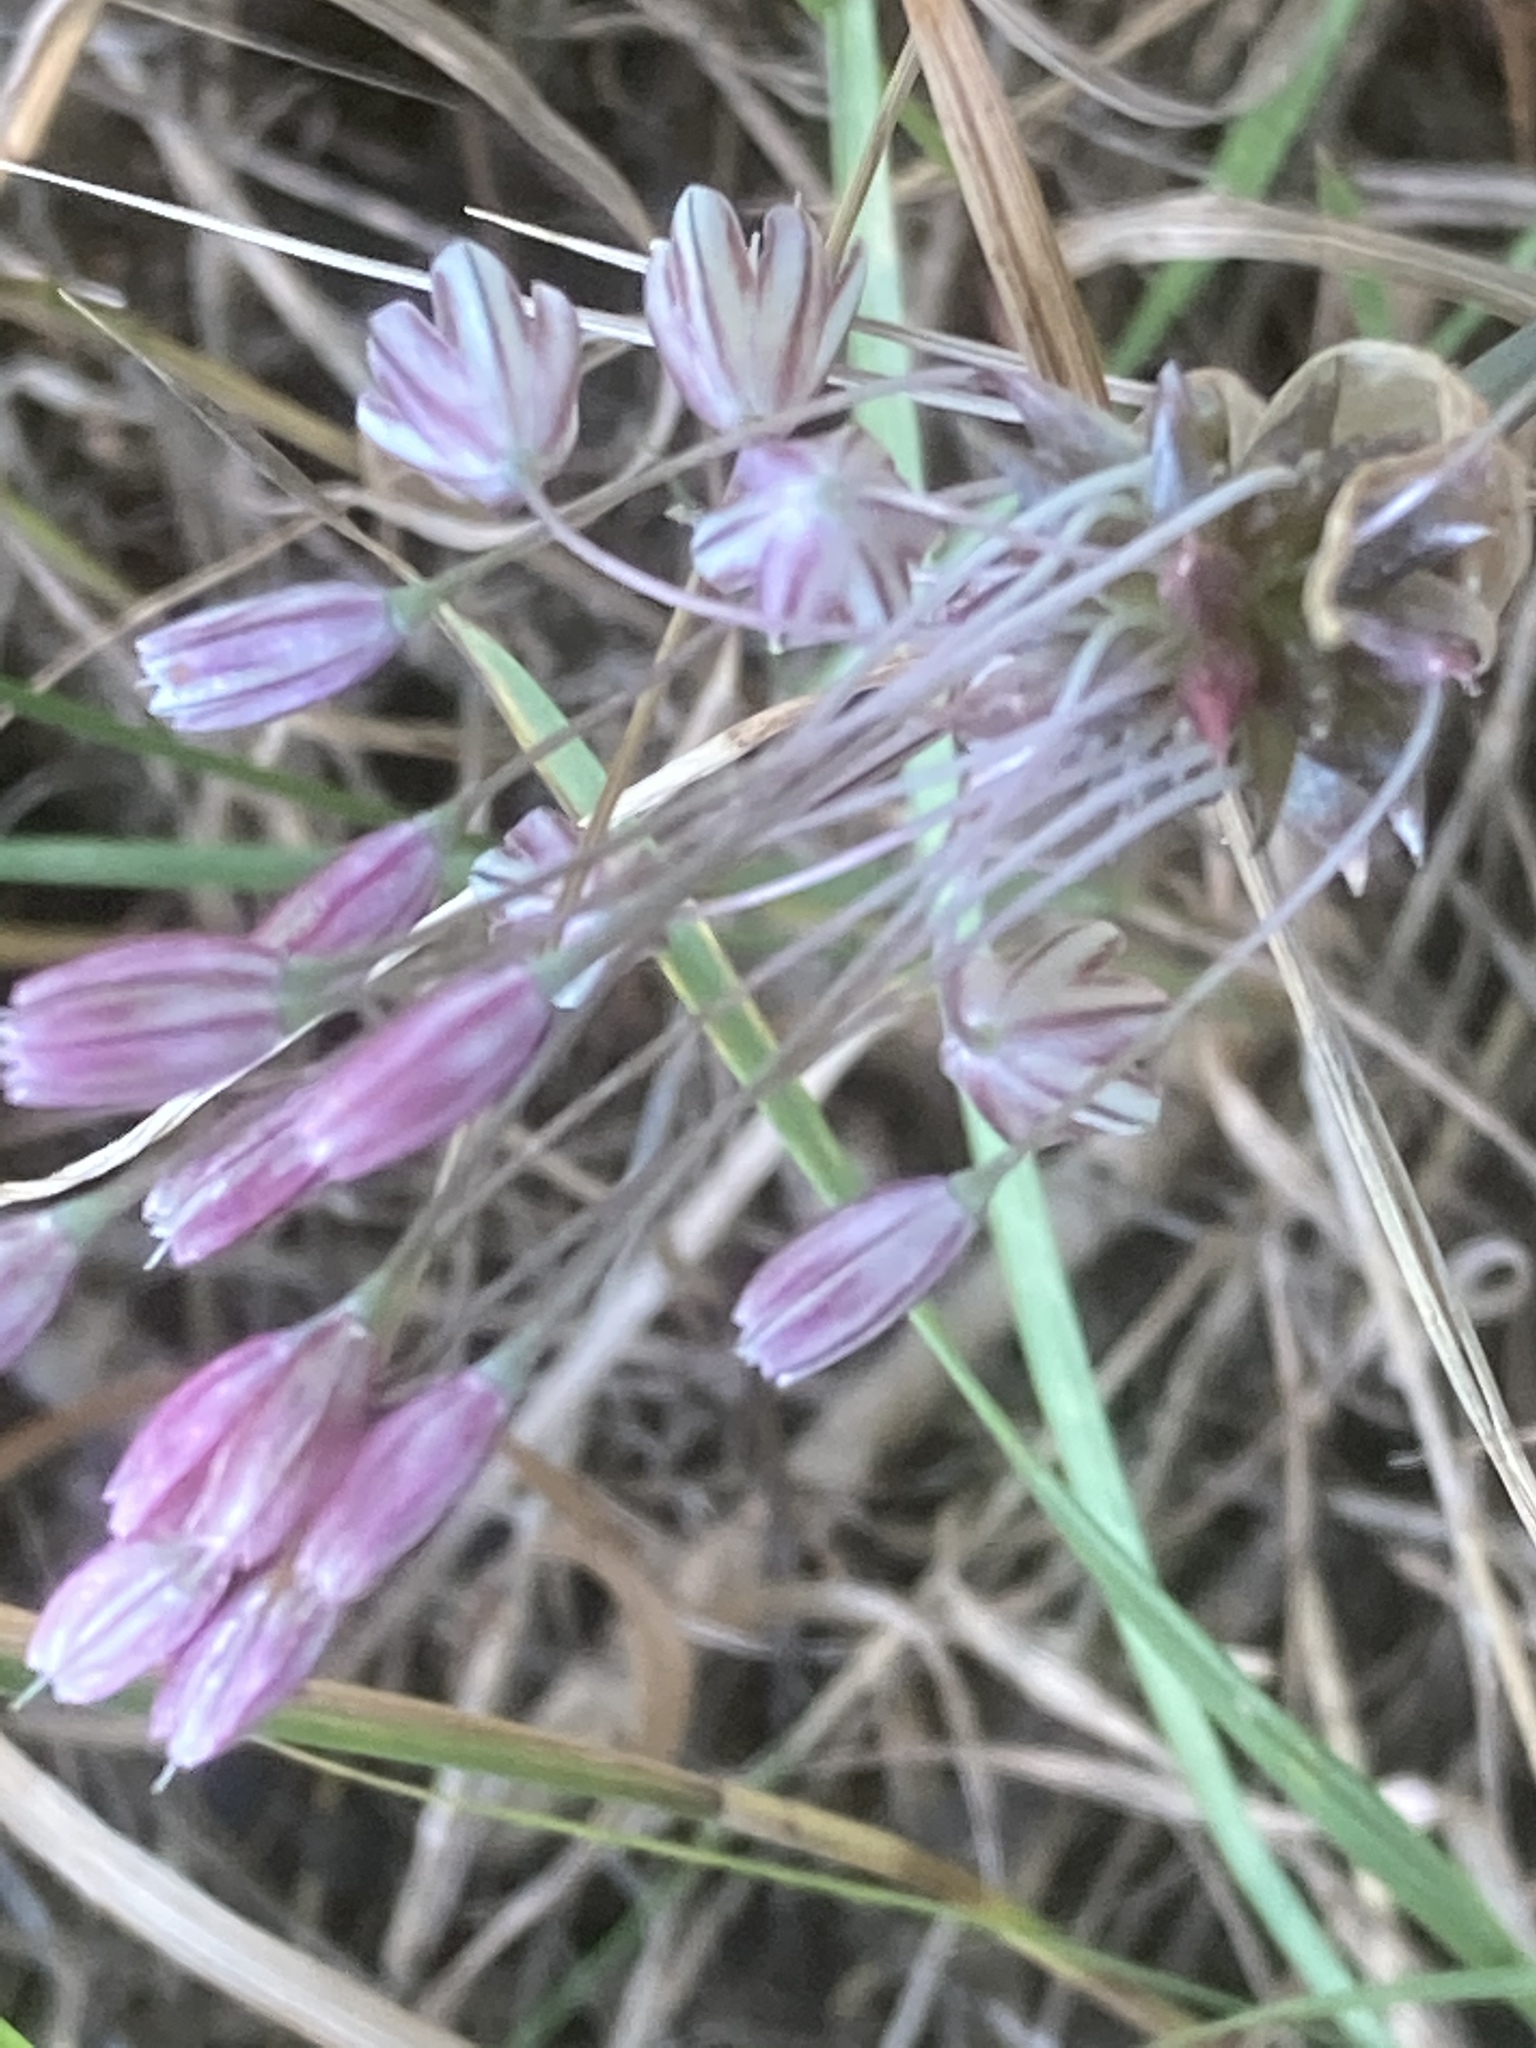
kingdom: Plantae
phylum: Tracheophyta
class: Liliopsida
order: Asparagales
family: Amaryllidaceae
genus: Allium
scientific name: Allium oleraceum
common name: Field garlic
